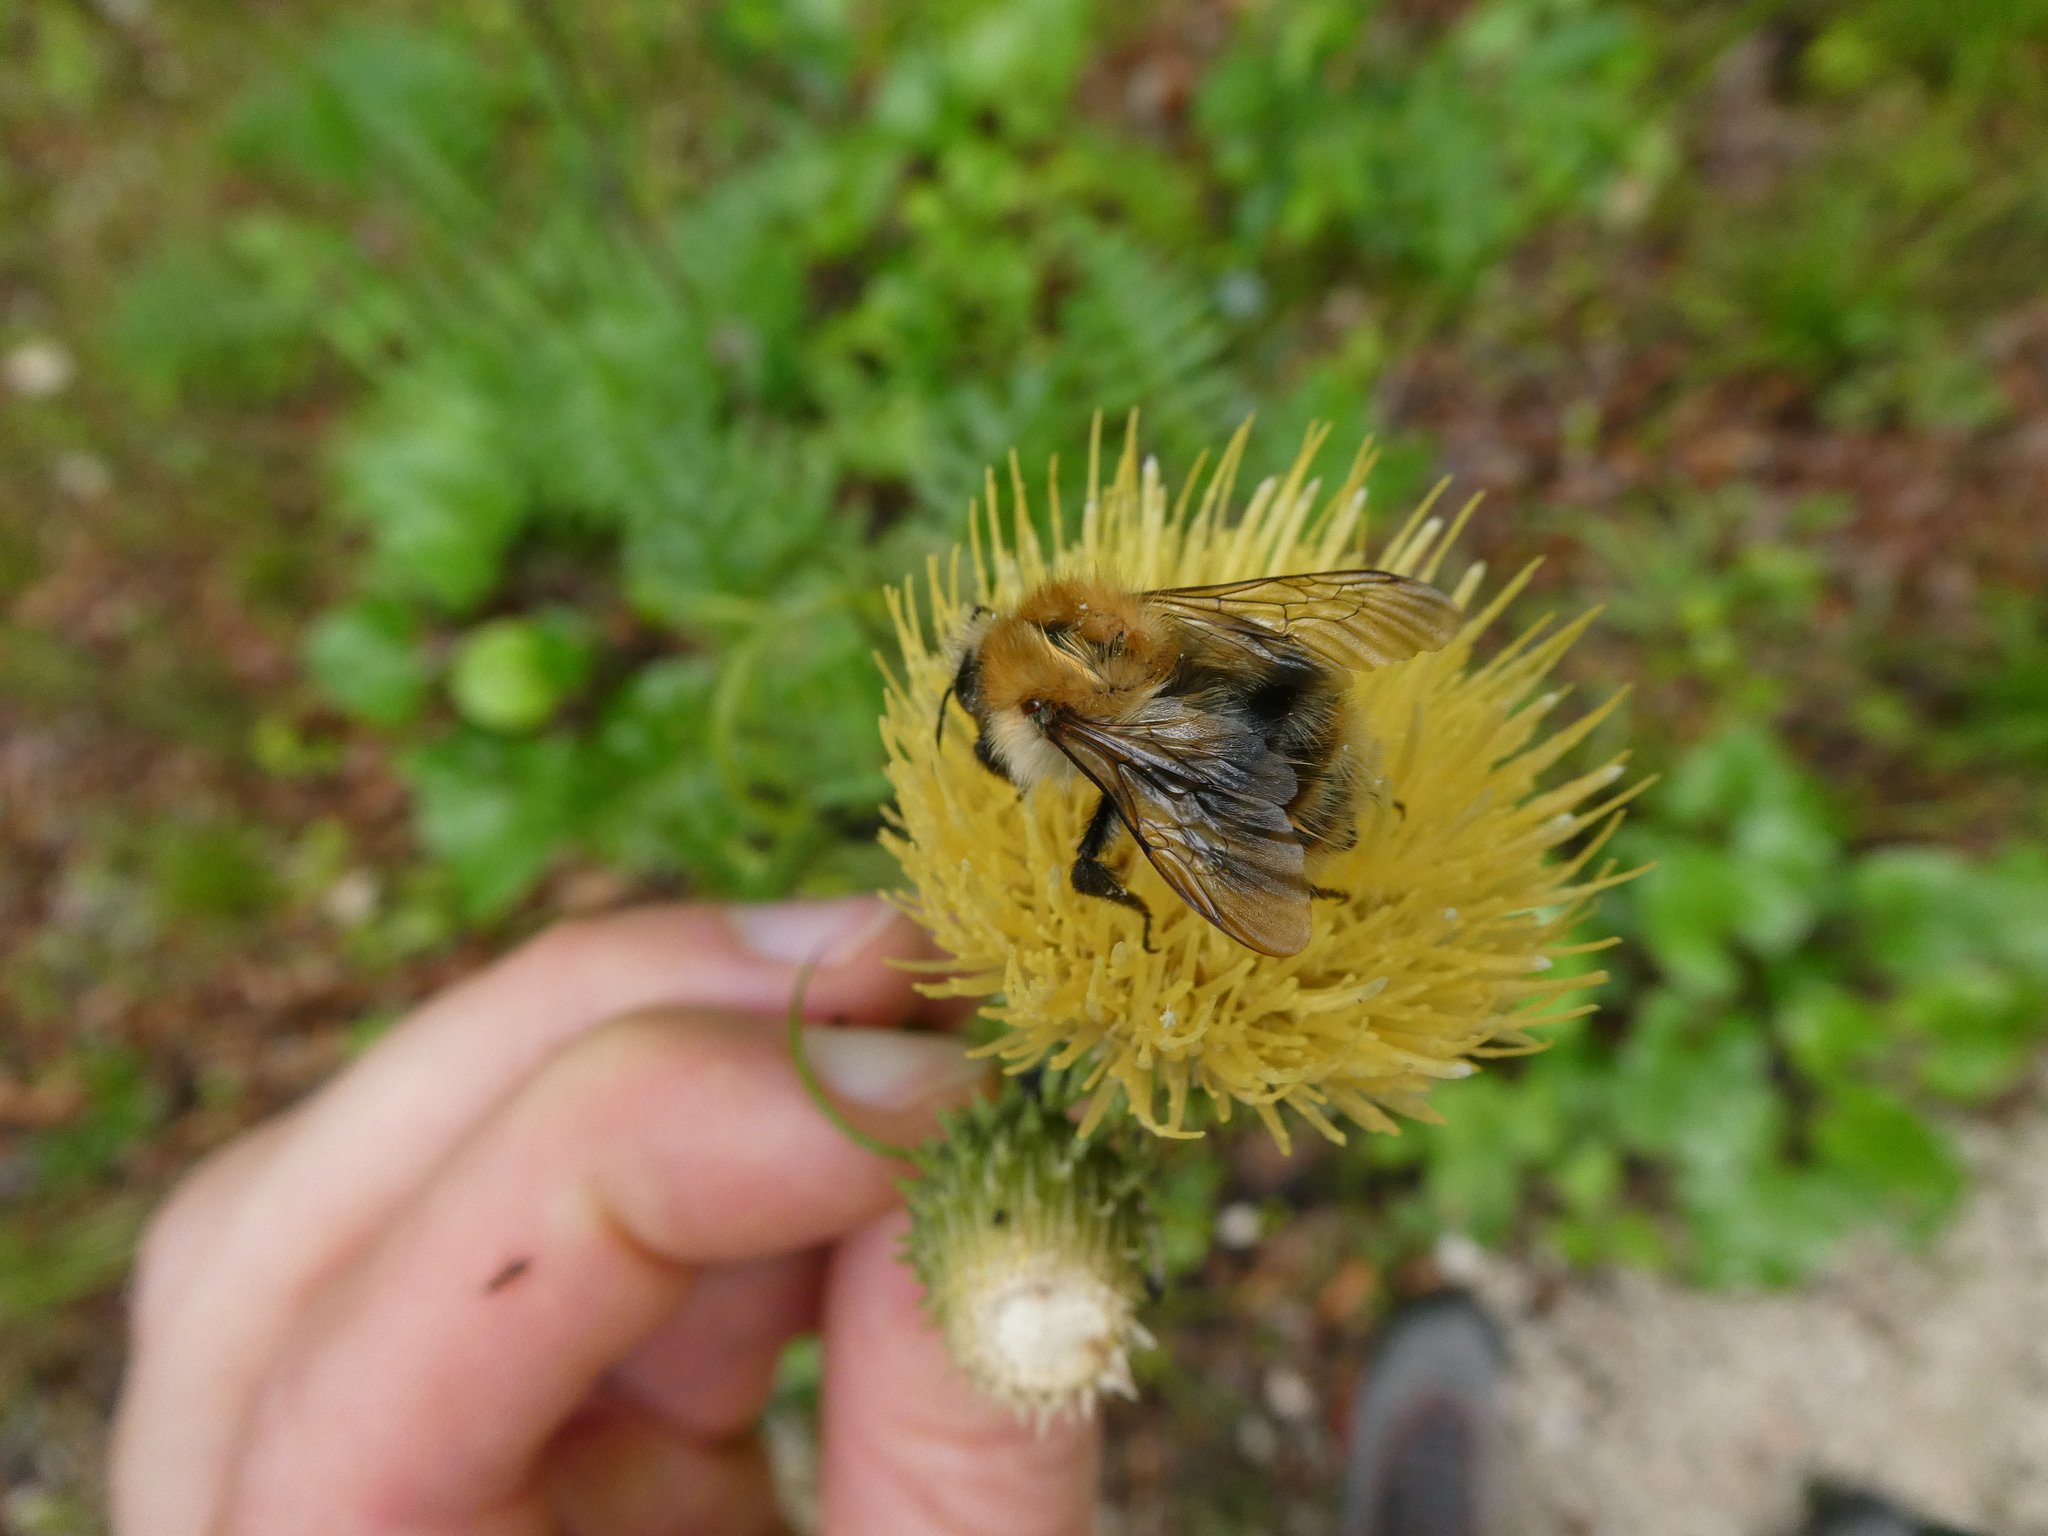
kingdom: Animalia
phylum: Arthropoda
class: Insecta
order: Hymenoptera
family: Apidae
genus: Bombus
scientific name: Bombus pascuorum
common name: Common carder bee
